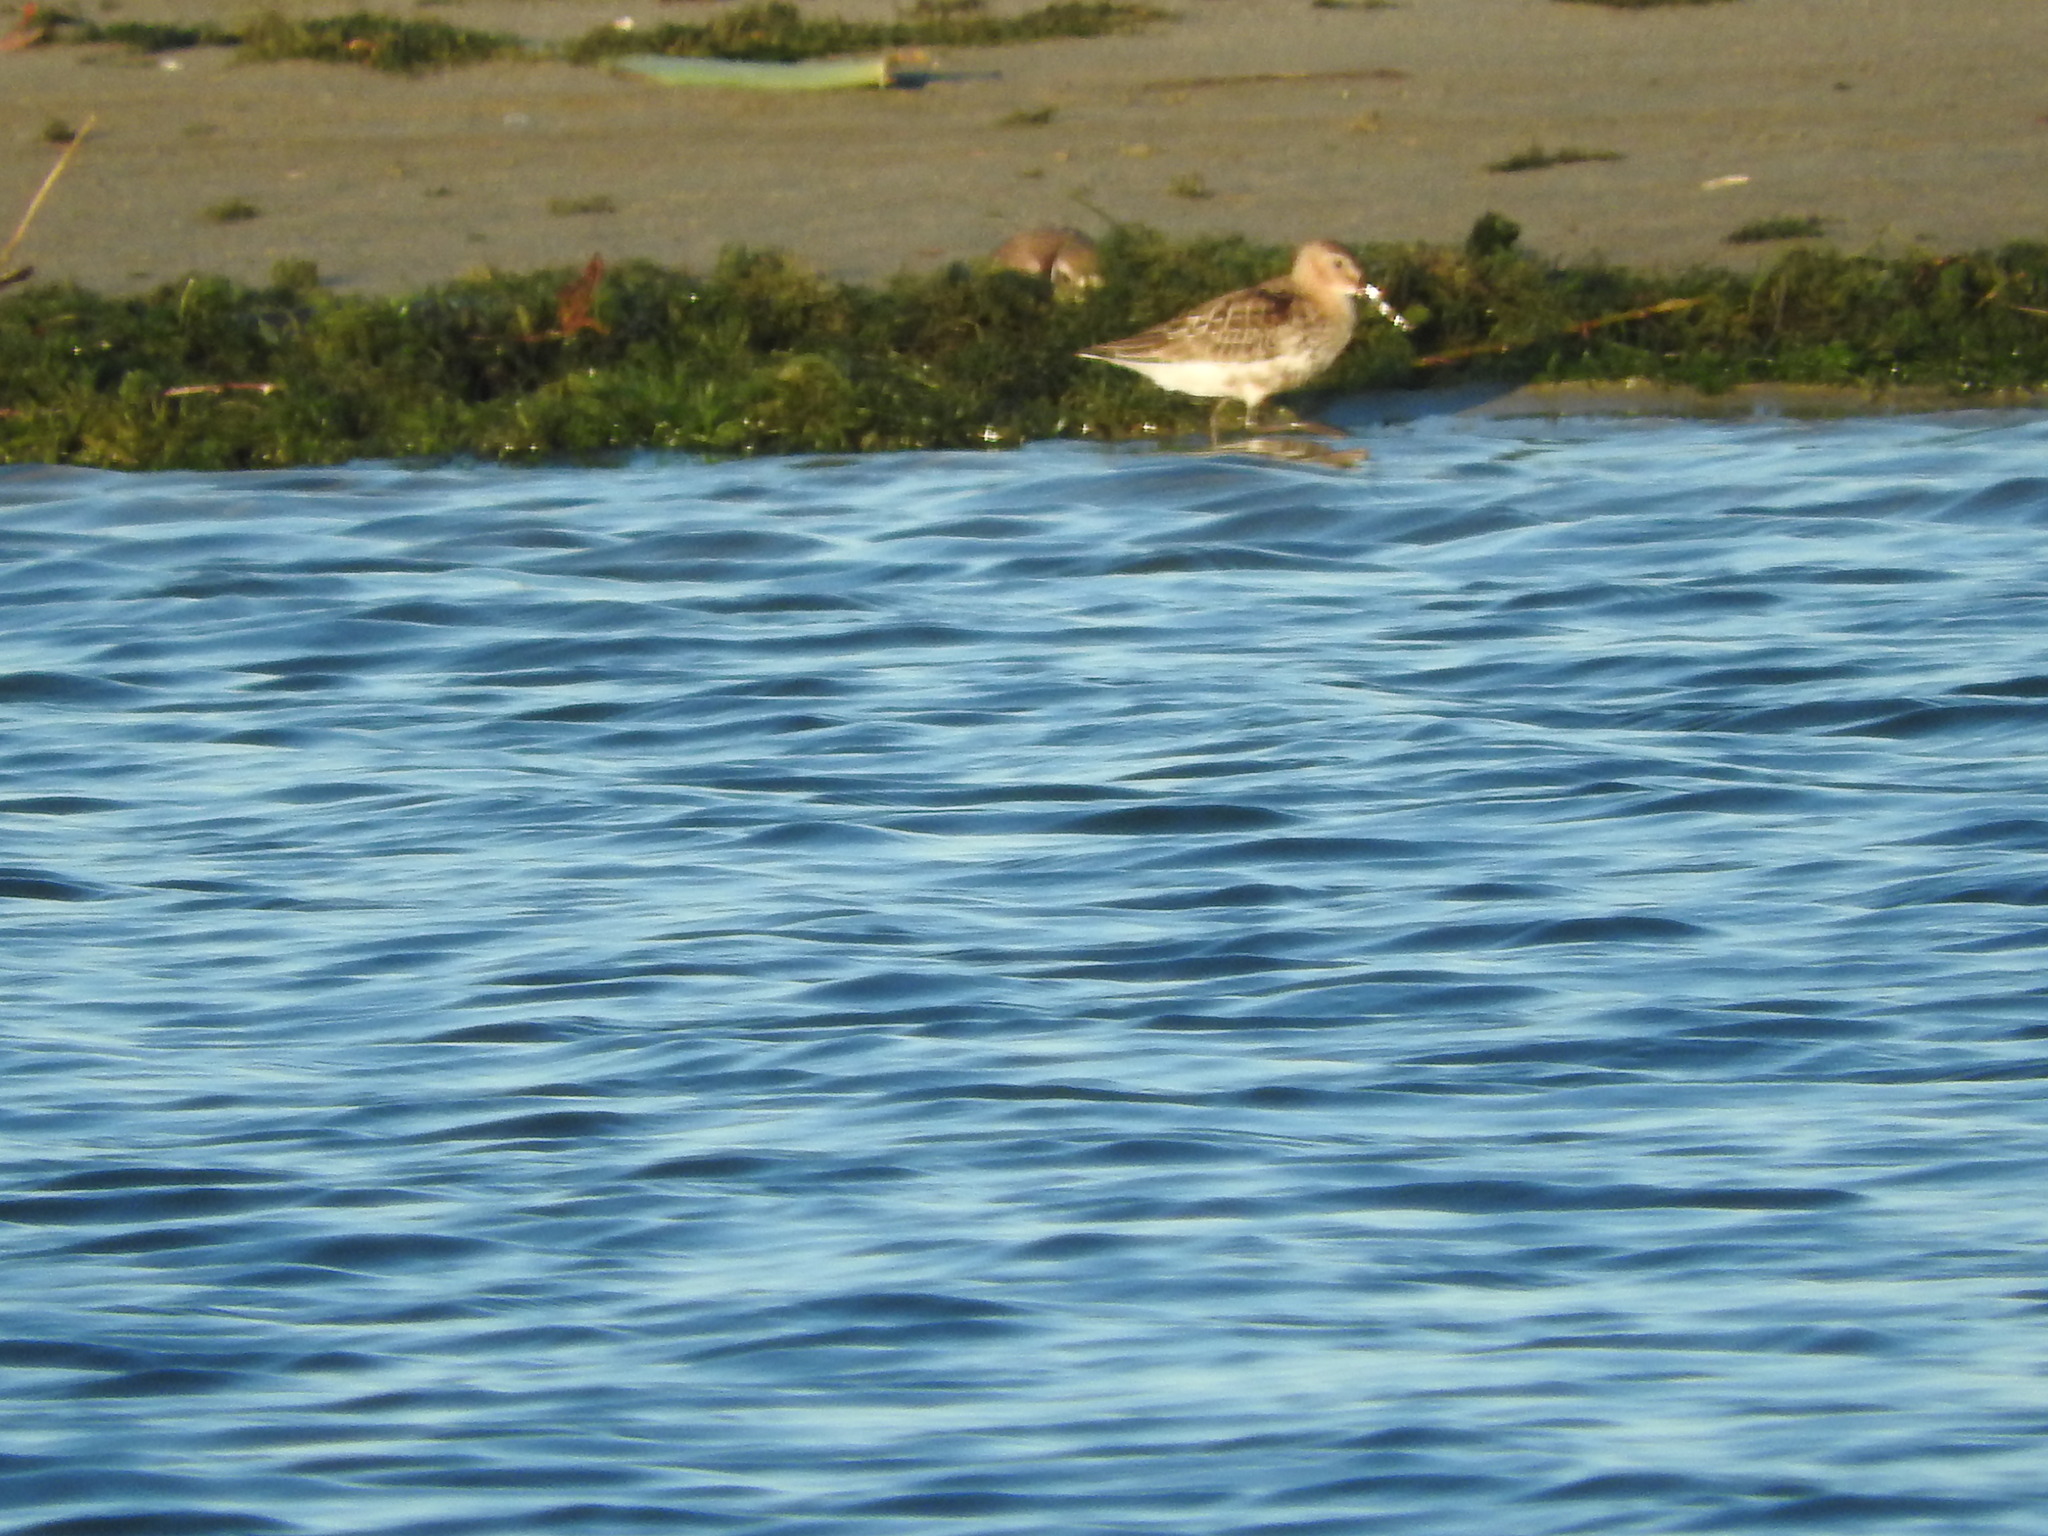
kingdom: Animalia
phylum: Chordata
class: Aves
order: Charadriiformes
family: Scolopacidae
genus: Calidris
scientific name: Calidris alpina
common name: Dunlin
